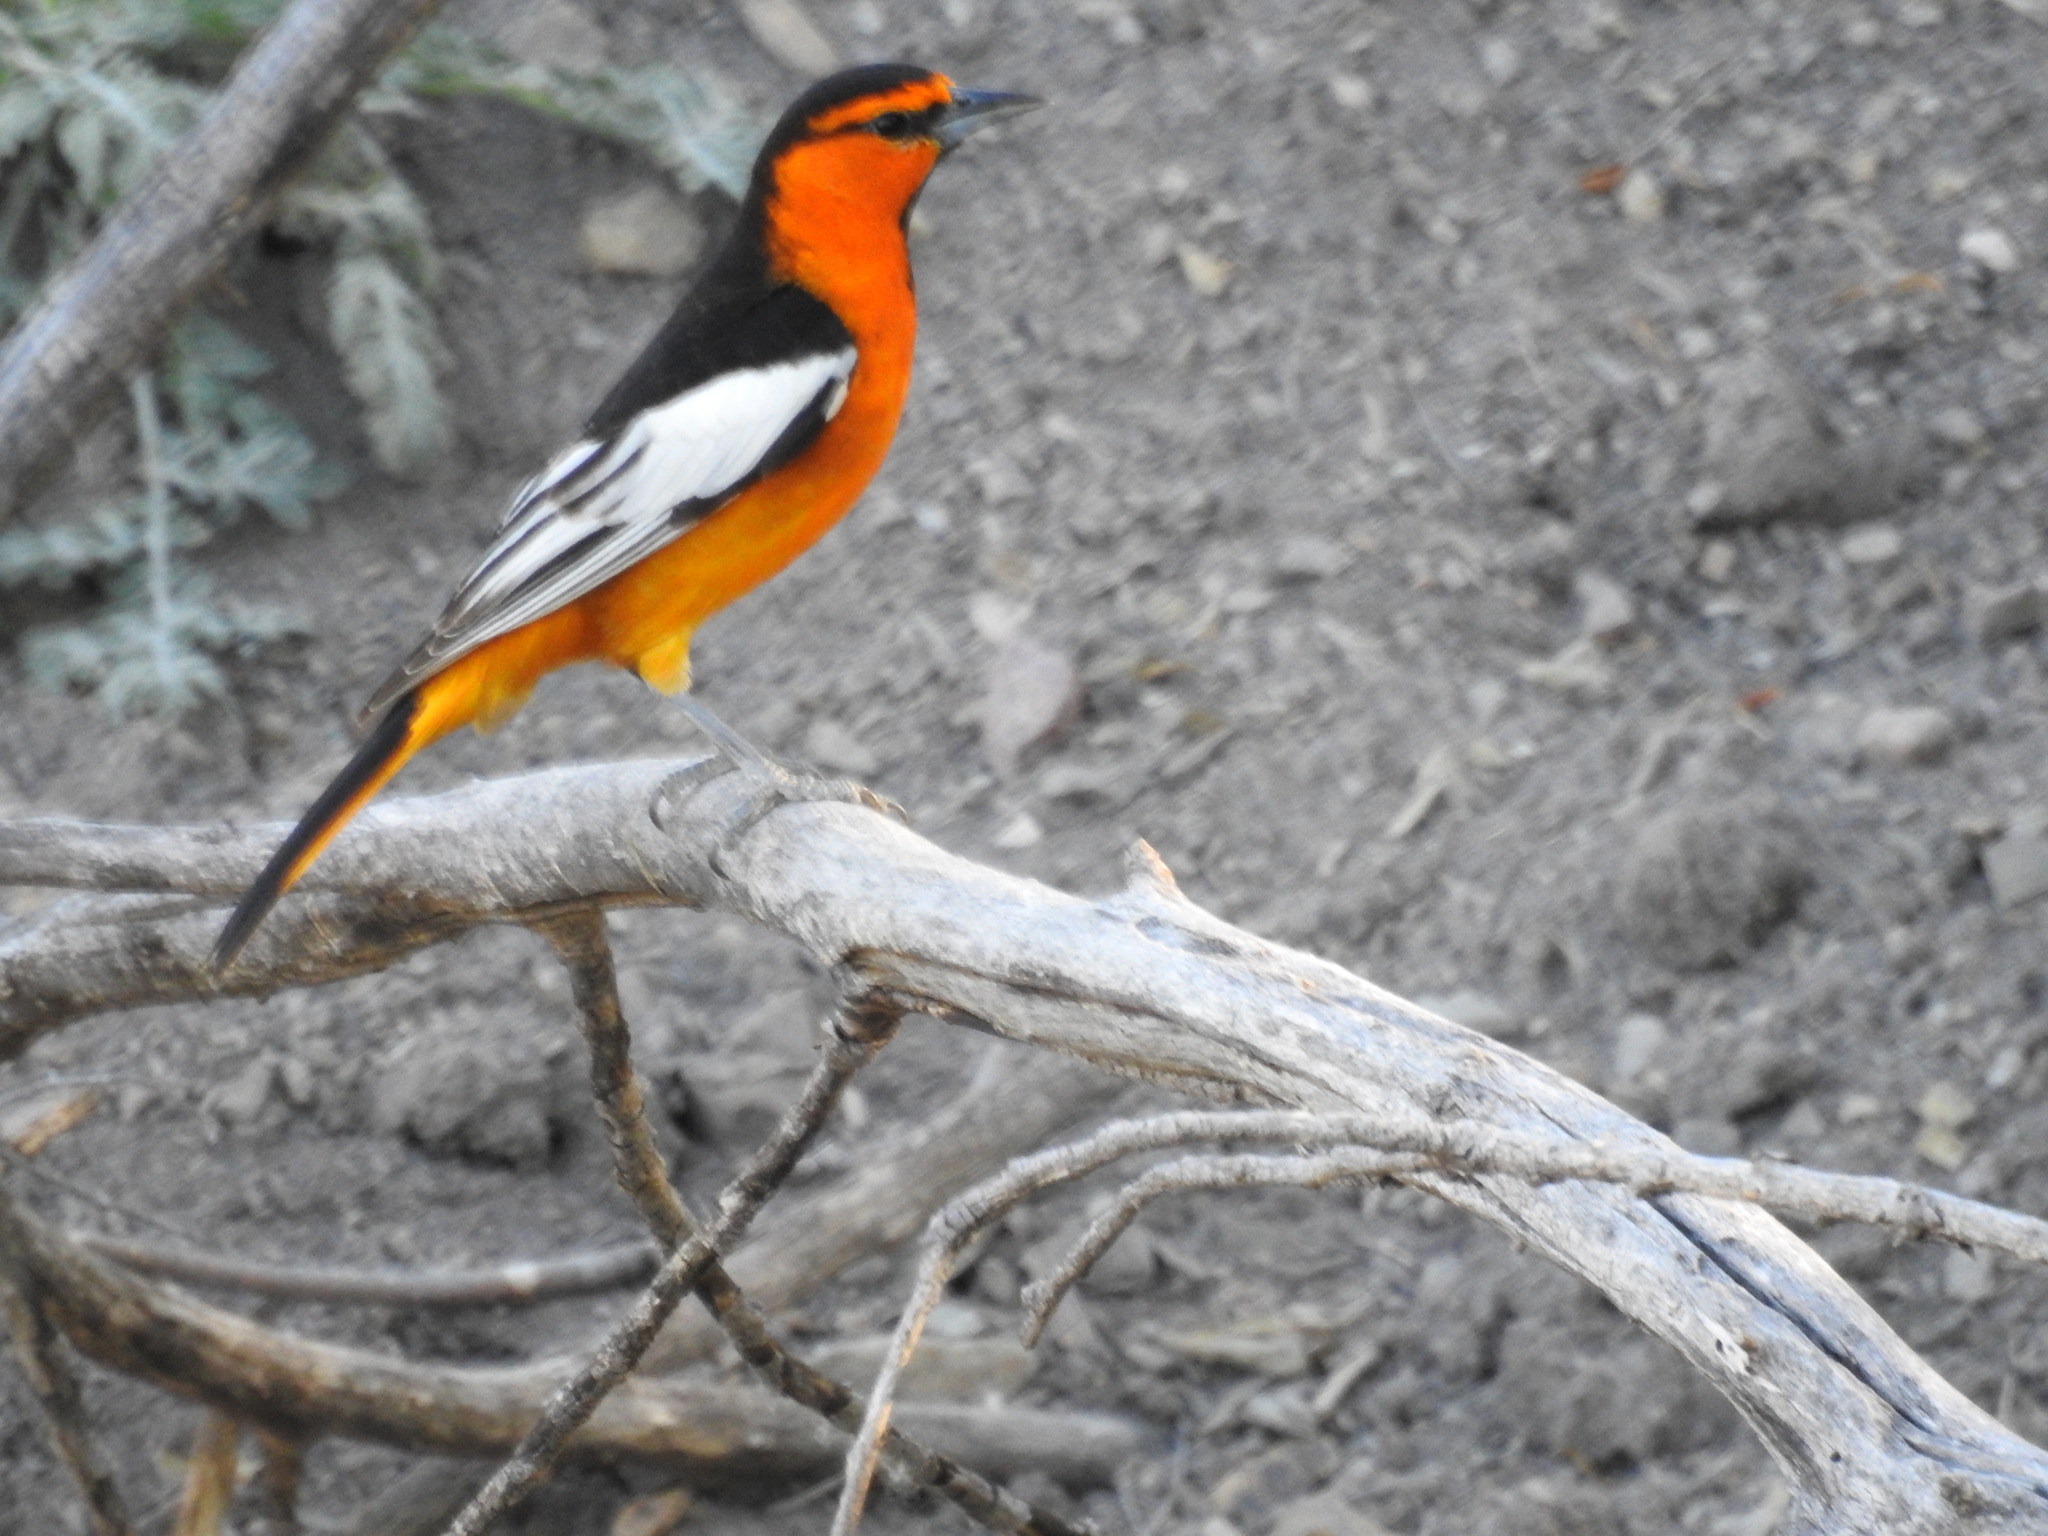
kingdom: Animalia
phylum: Chordata
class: Aves
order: Passeriformes
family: Icteridae
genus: Icterus
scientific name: Icterus bullockii
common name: Bullock's oriole
